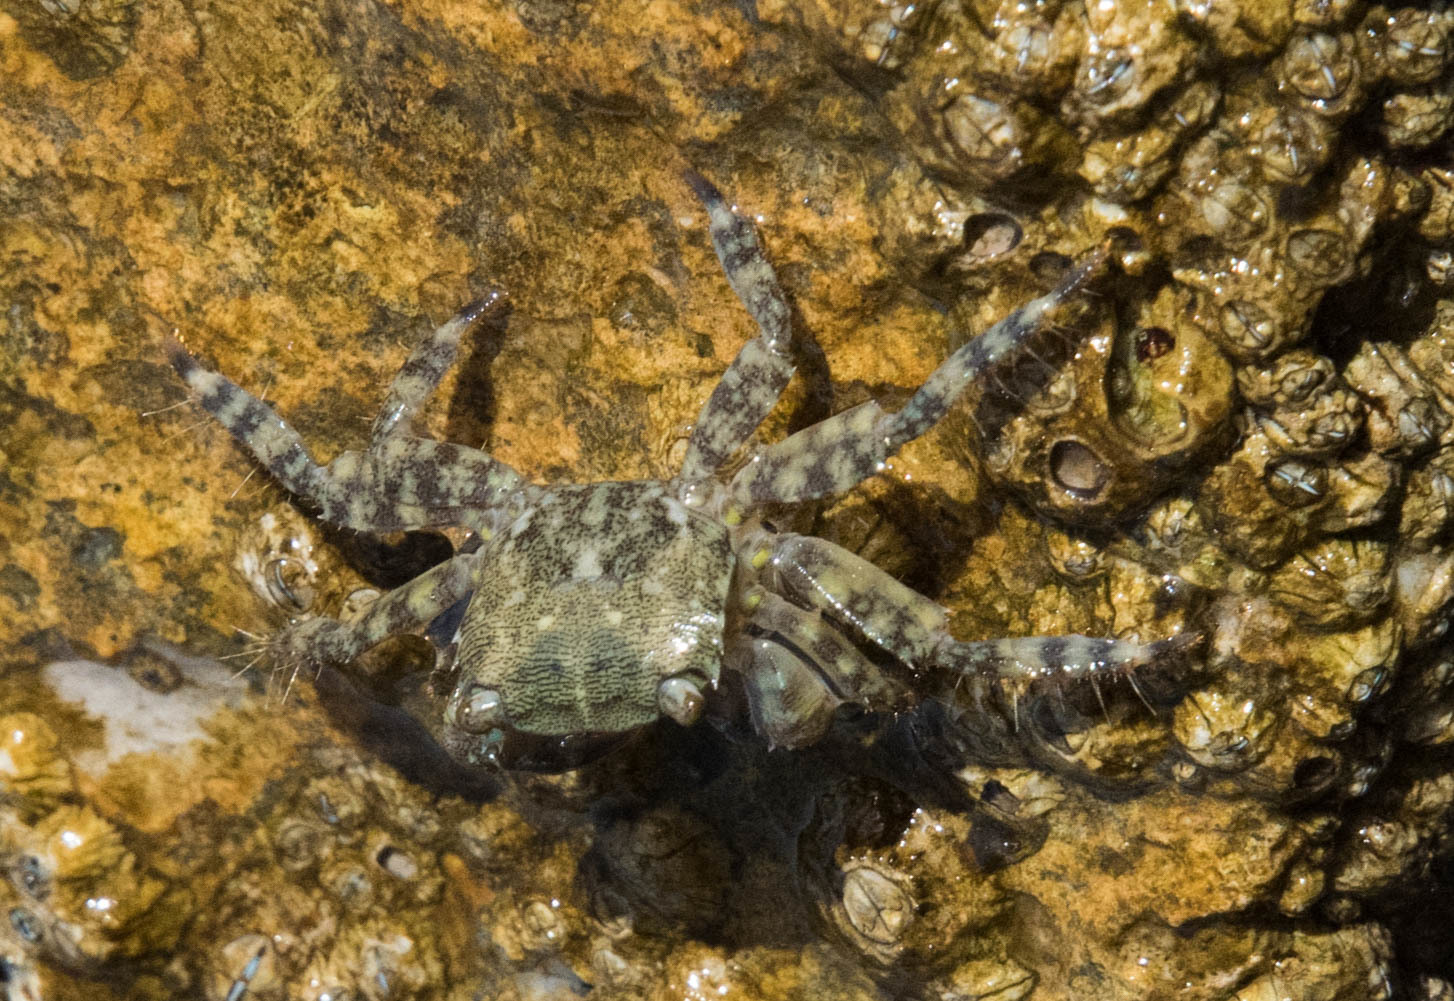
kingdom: Animalia
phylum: Arthropoda
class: Malacostraca
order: Decapoda
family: Grapsidae
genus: Pachygrapsus
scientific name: Pachygrapsus marmoratus
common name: Marbled rock crab
